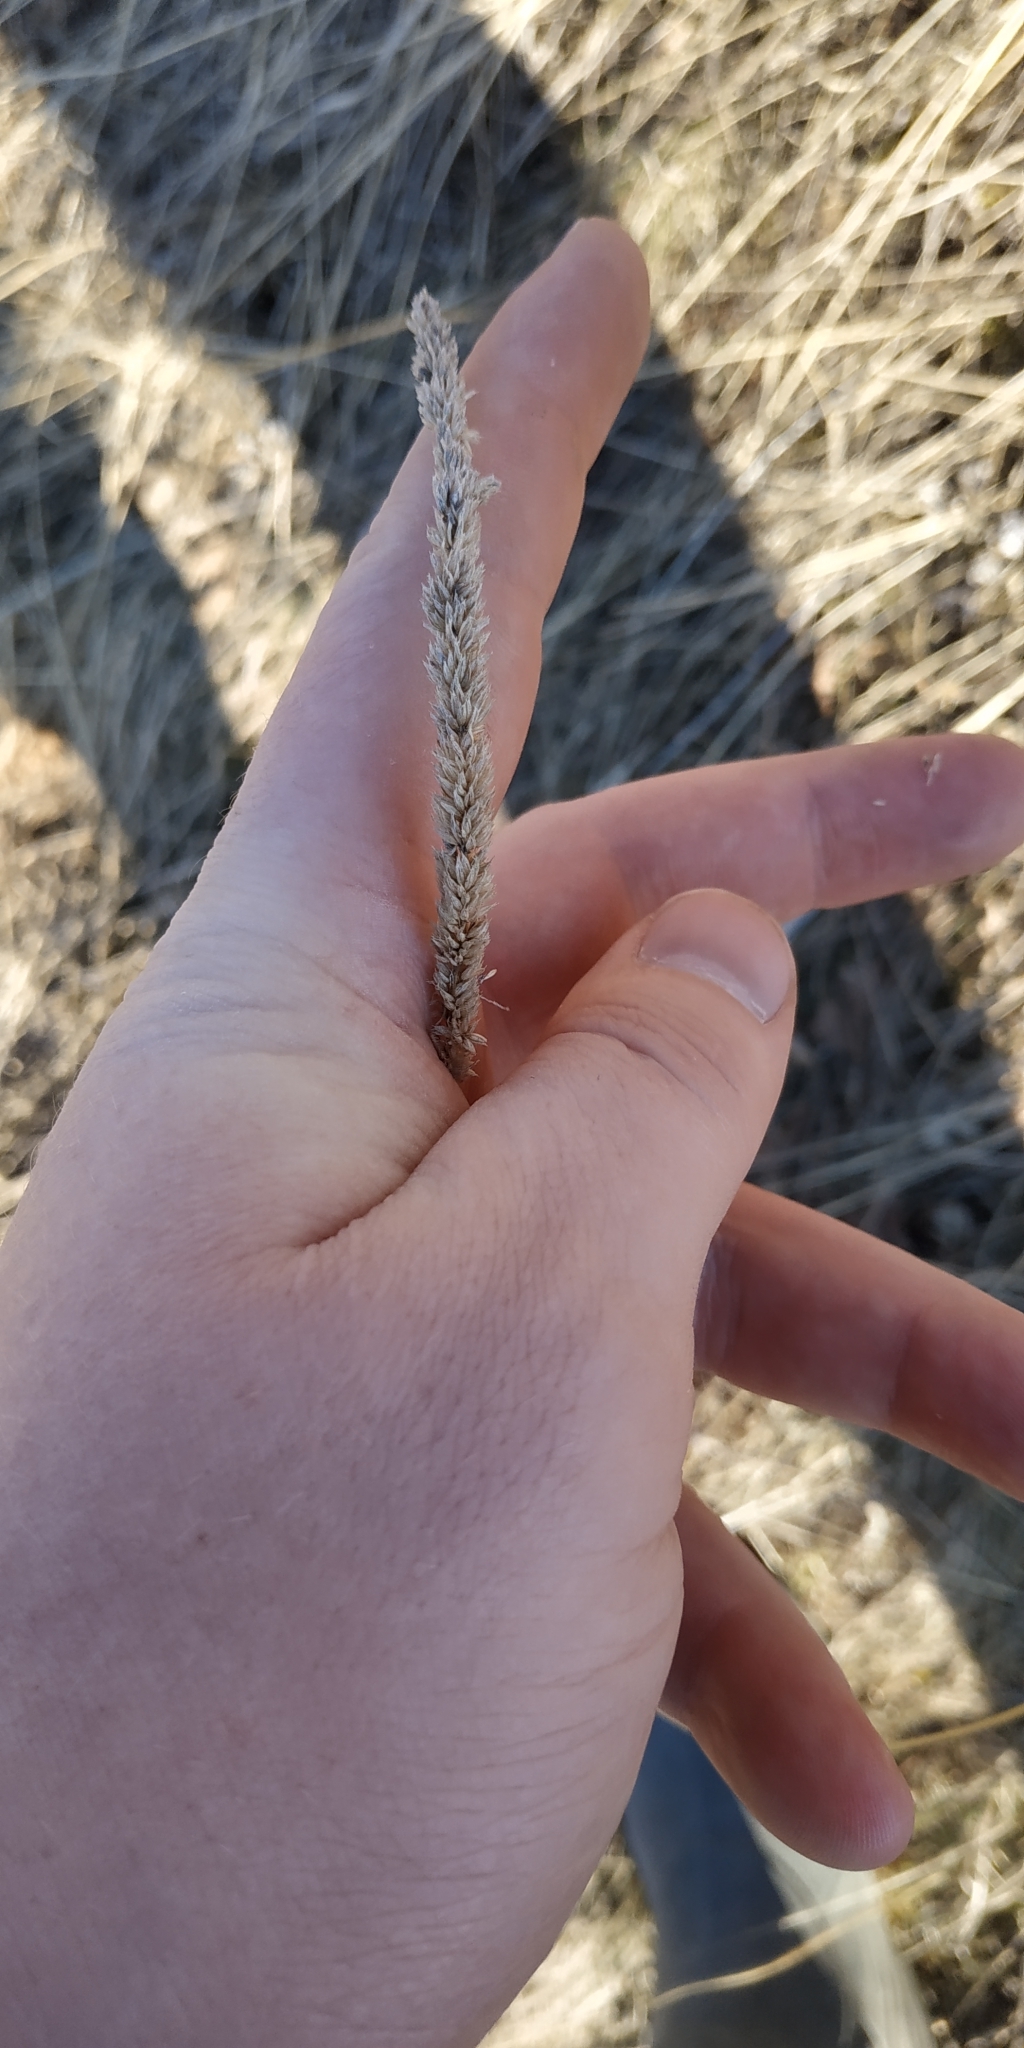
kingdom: Plantae
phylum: Tracheophyta
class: Liliopsida
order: Poales
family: Poaceae
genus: Phleum
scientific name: Phleum phleoides
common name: Purple-stem cat's-tail
